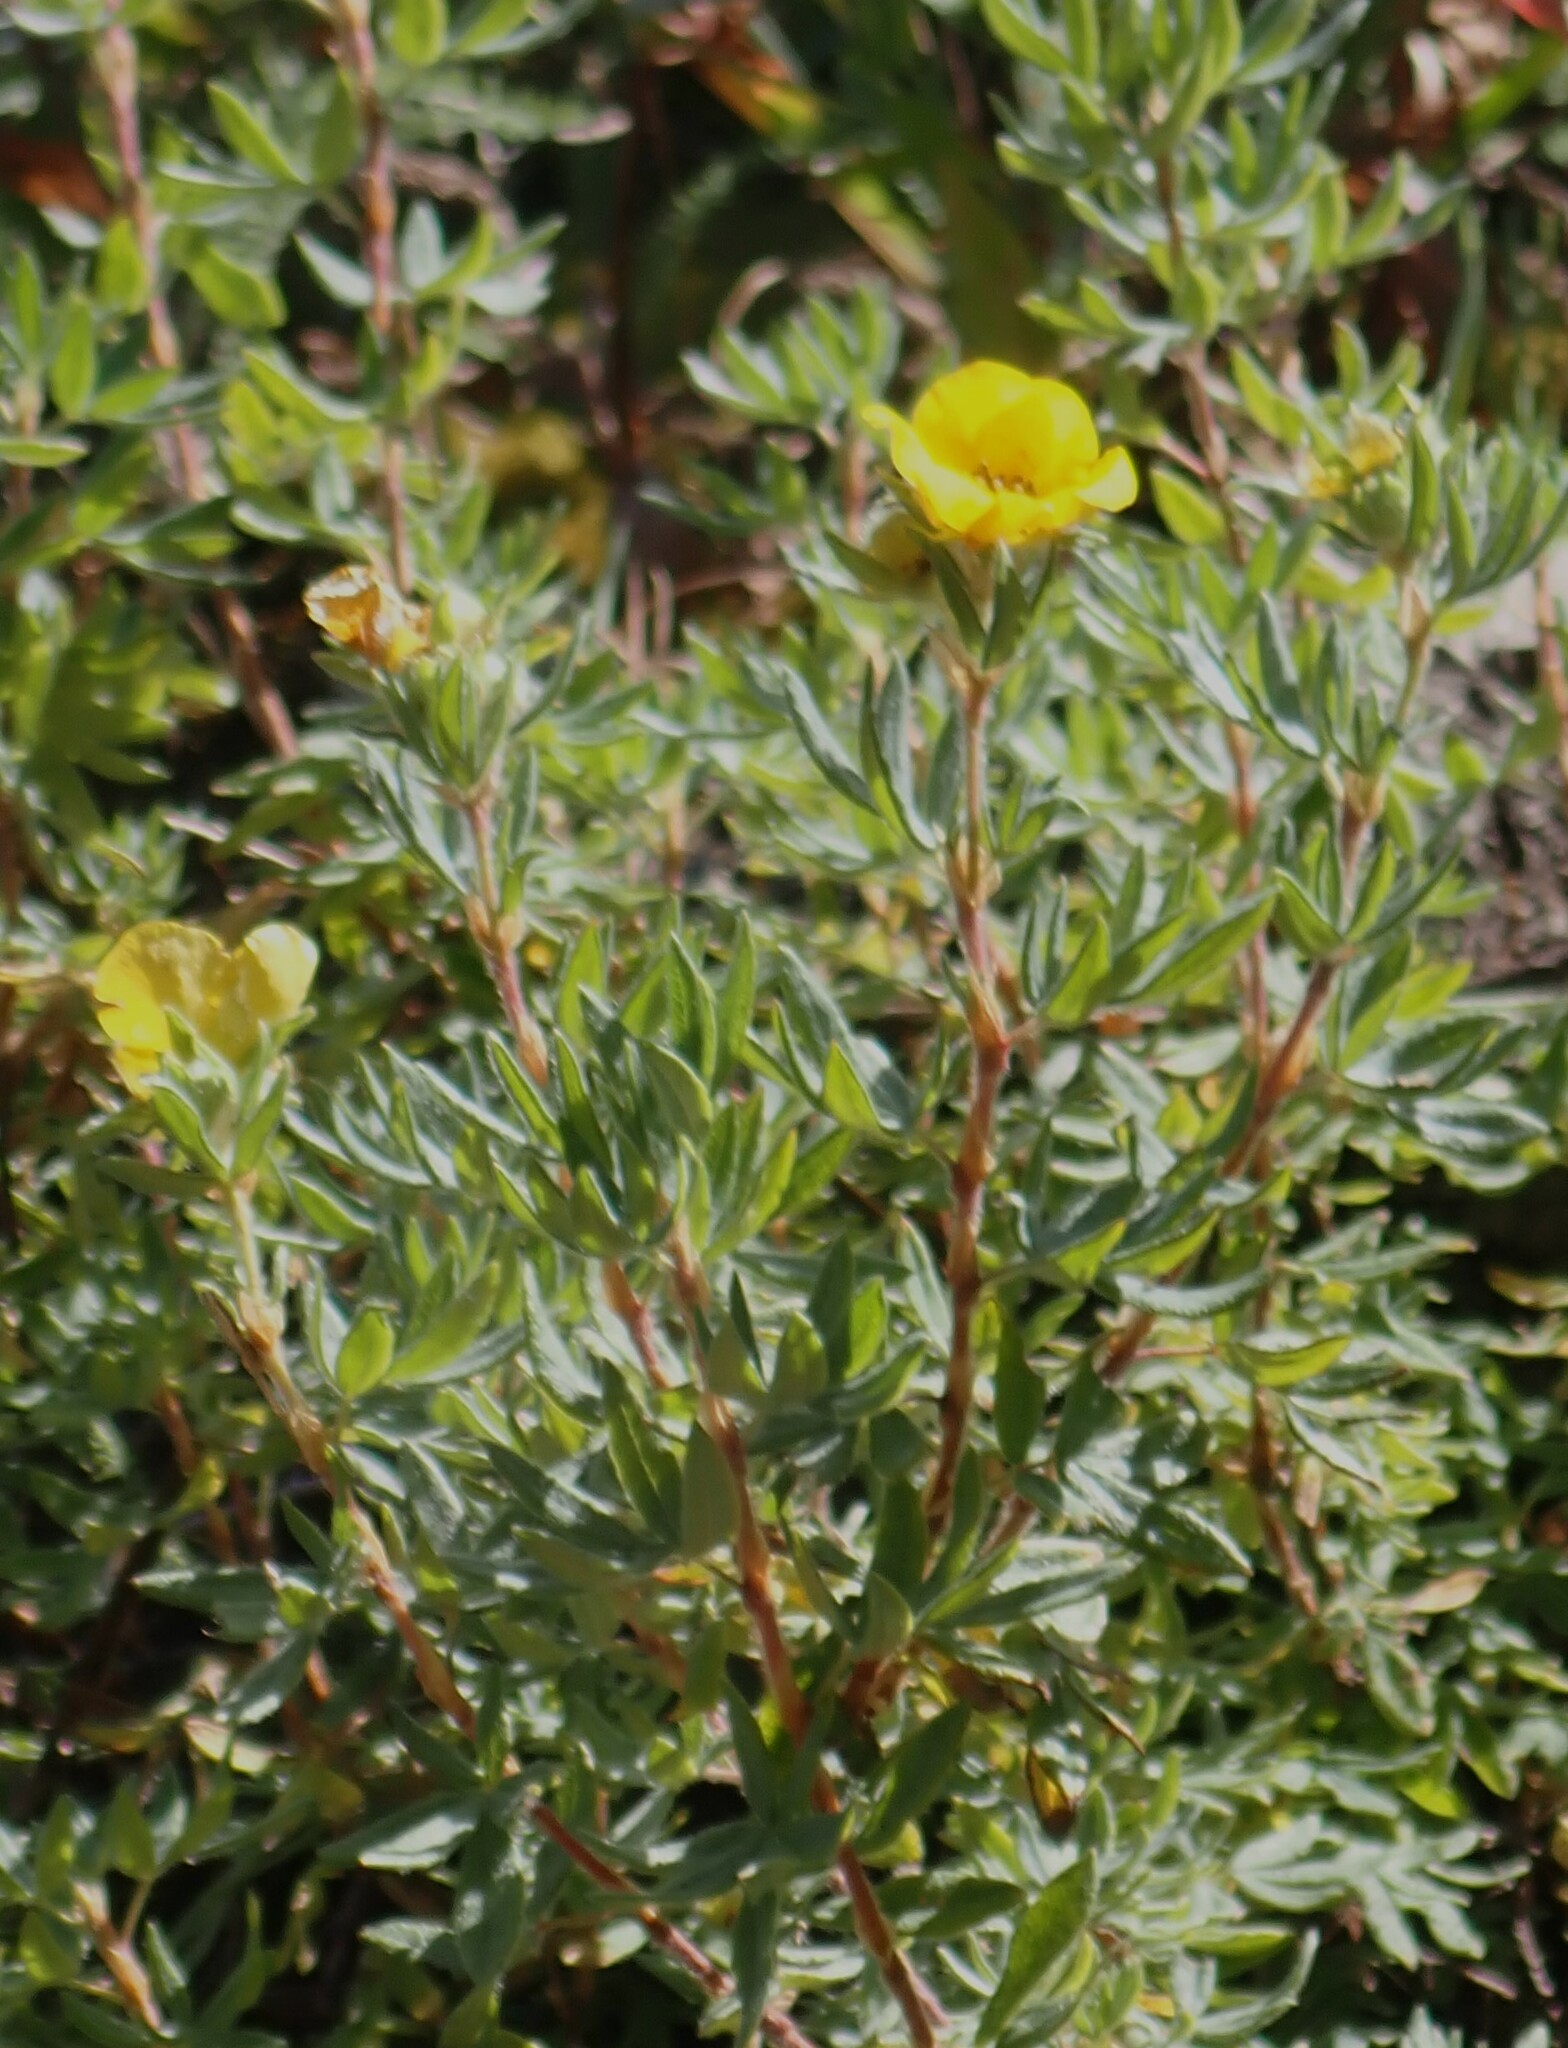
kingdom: Plantae
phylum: Tracheophyta
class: Magnoliopsida
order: Rosales
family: Rosaceae
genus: Dasiphora
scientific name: Dasiphora fruticosa
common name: Shrubby cinquefoil
